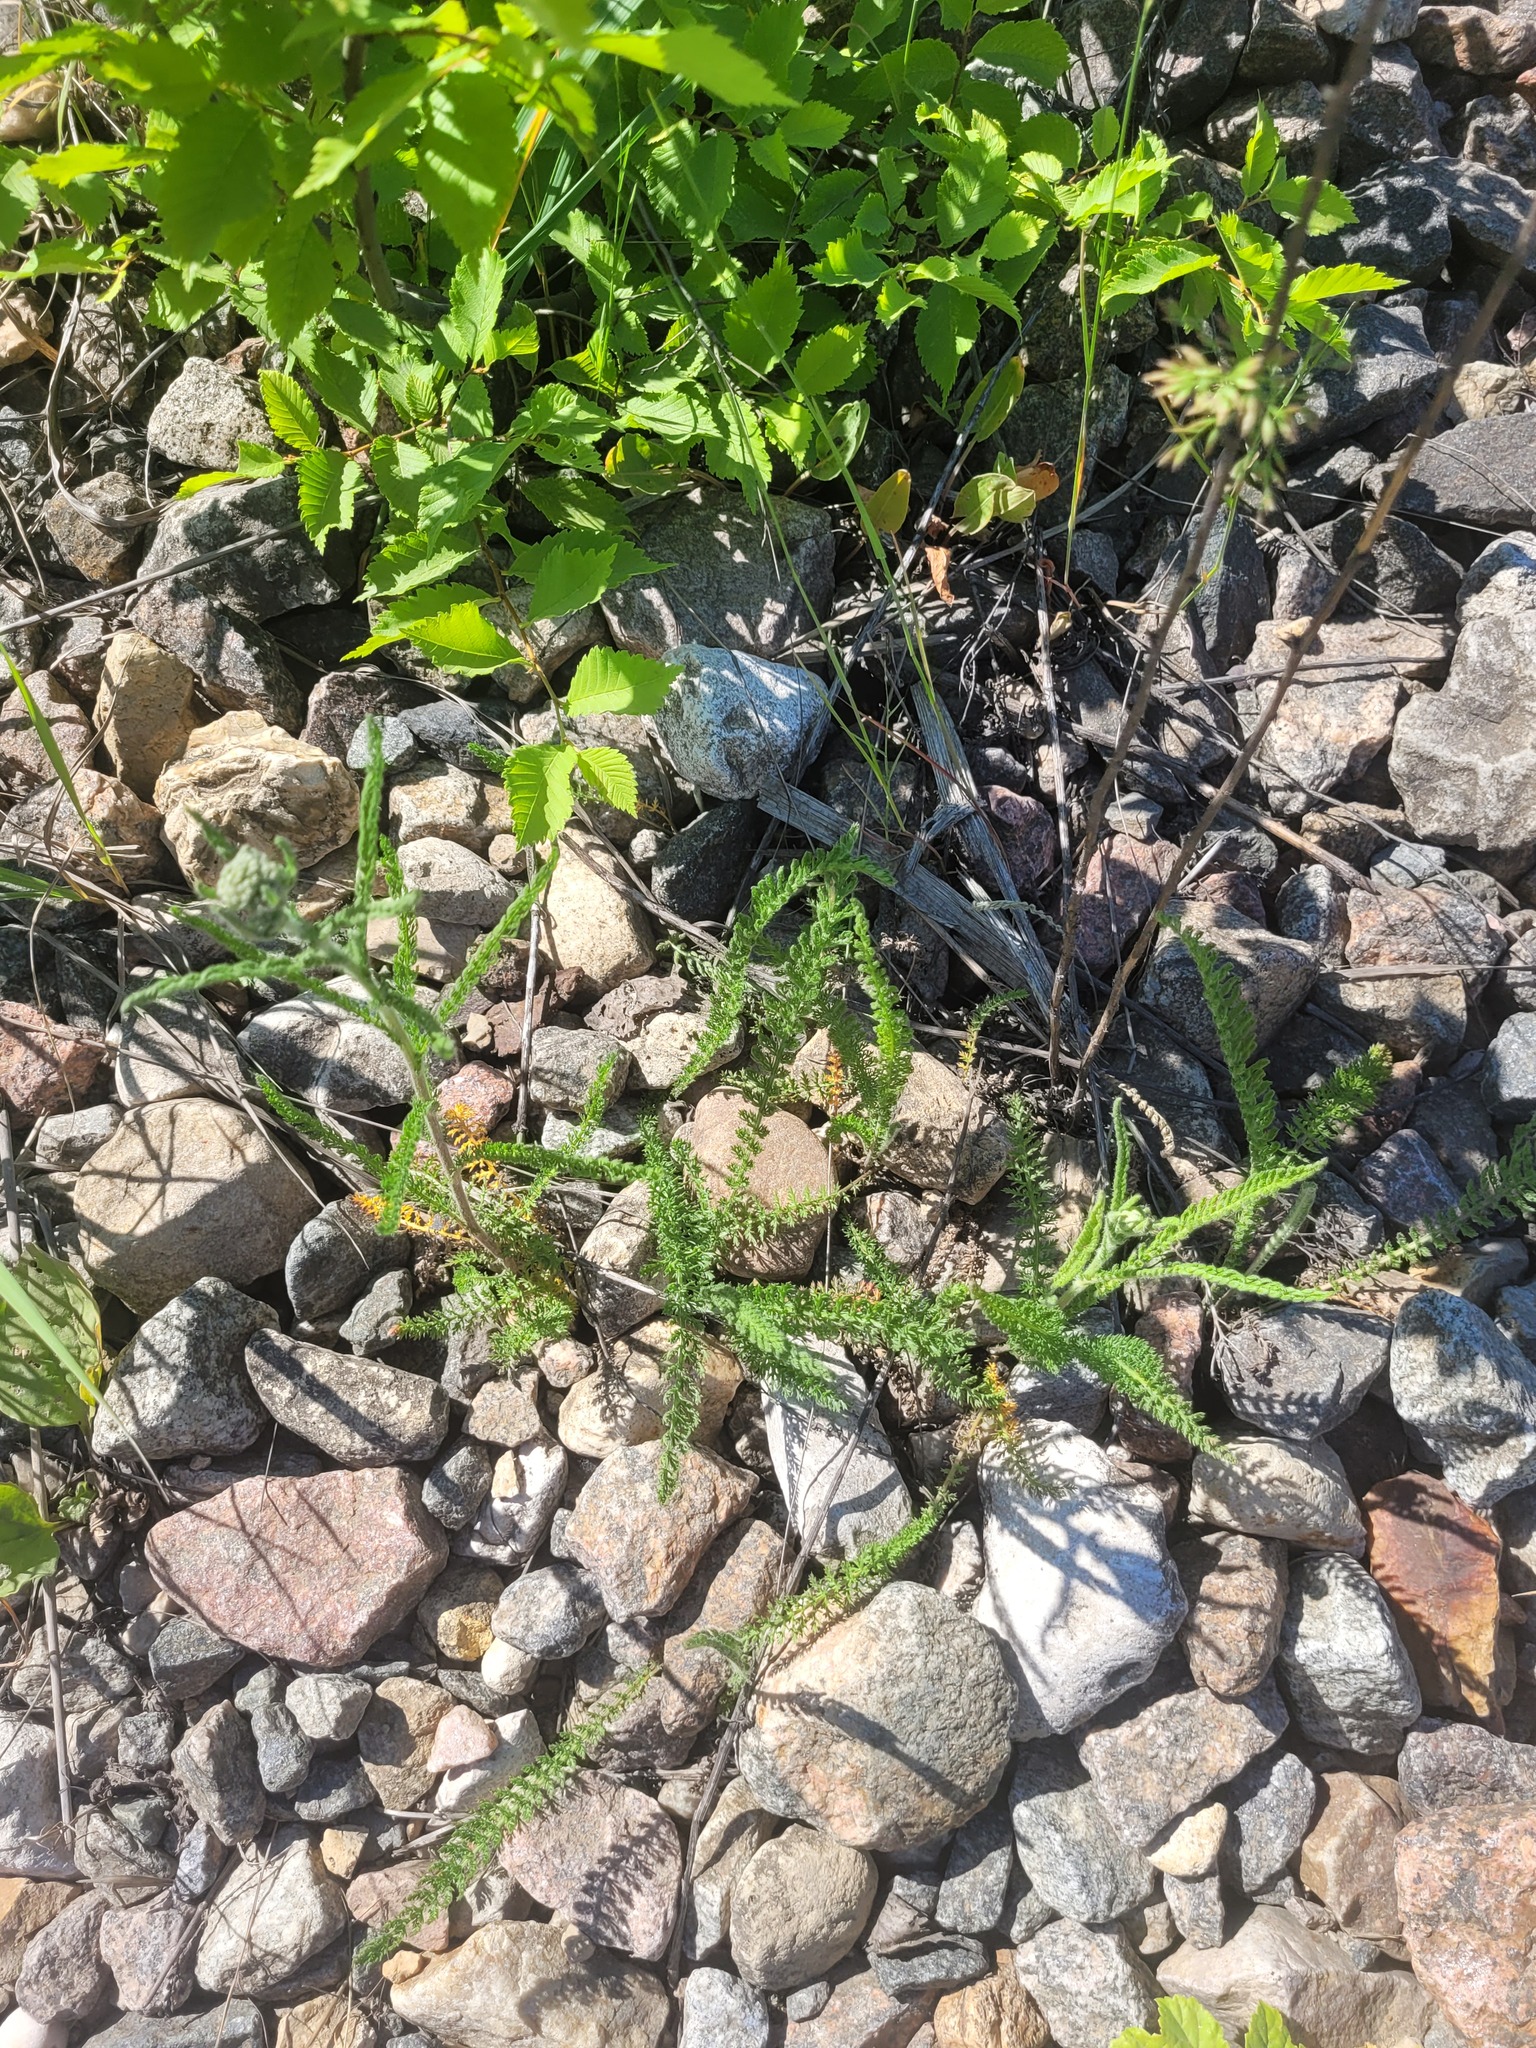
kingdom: Plantae
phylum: Tracheophyta
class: Magnoliopsida
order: Asterales
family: Asteraceae
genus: Achillea
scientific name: Achillea millefolium
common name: Yarrow
